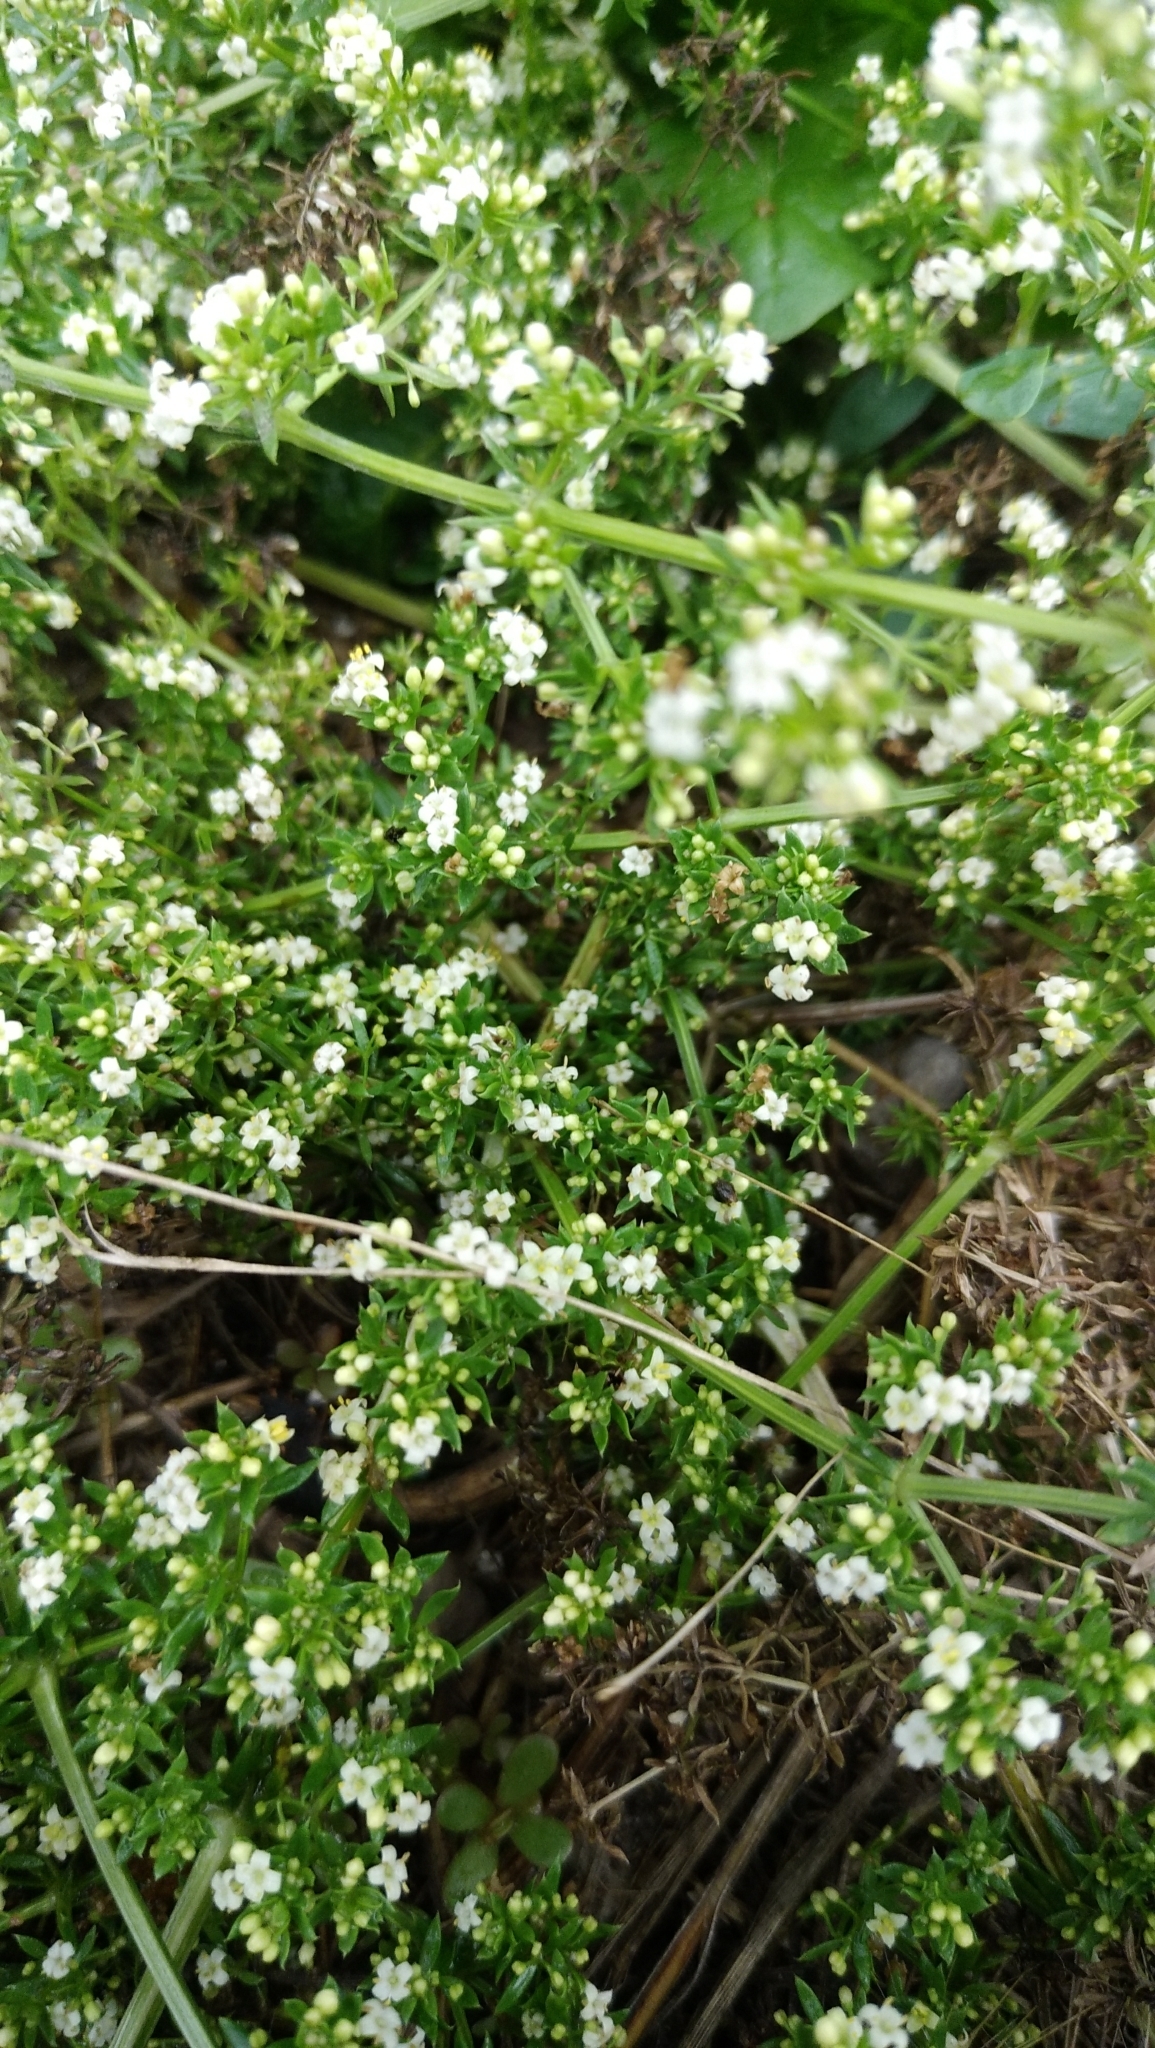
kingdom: Plantae
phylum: Tracheophyta
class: Magnoliopsida
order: Gentianales
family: Rubiaceae
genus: Galium
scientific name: Galium humifusum
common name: Spreading bedstraw
